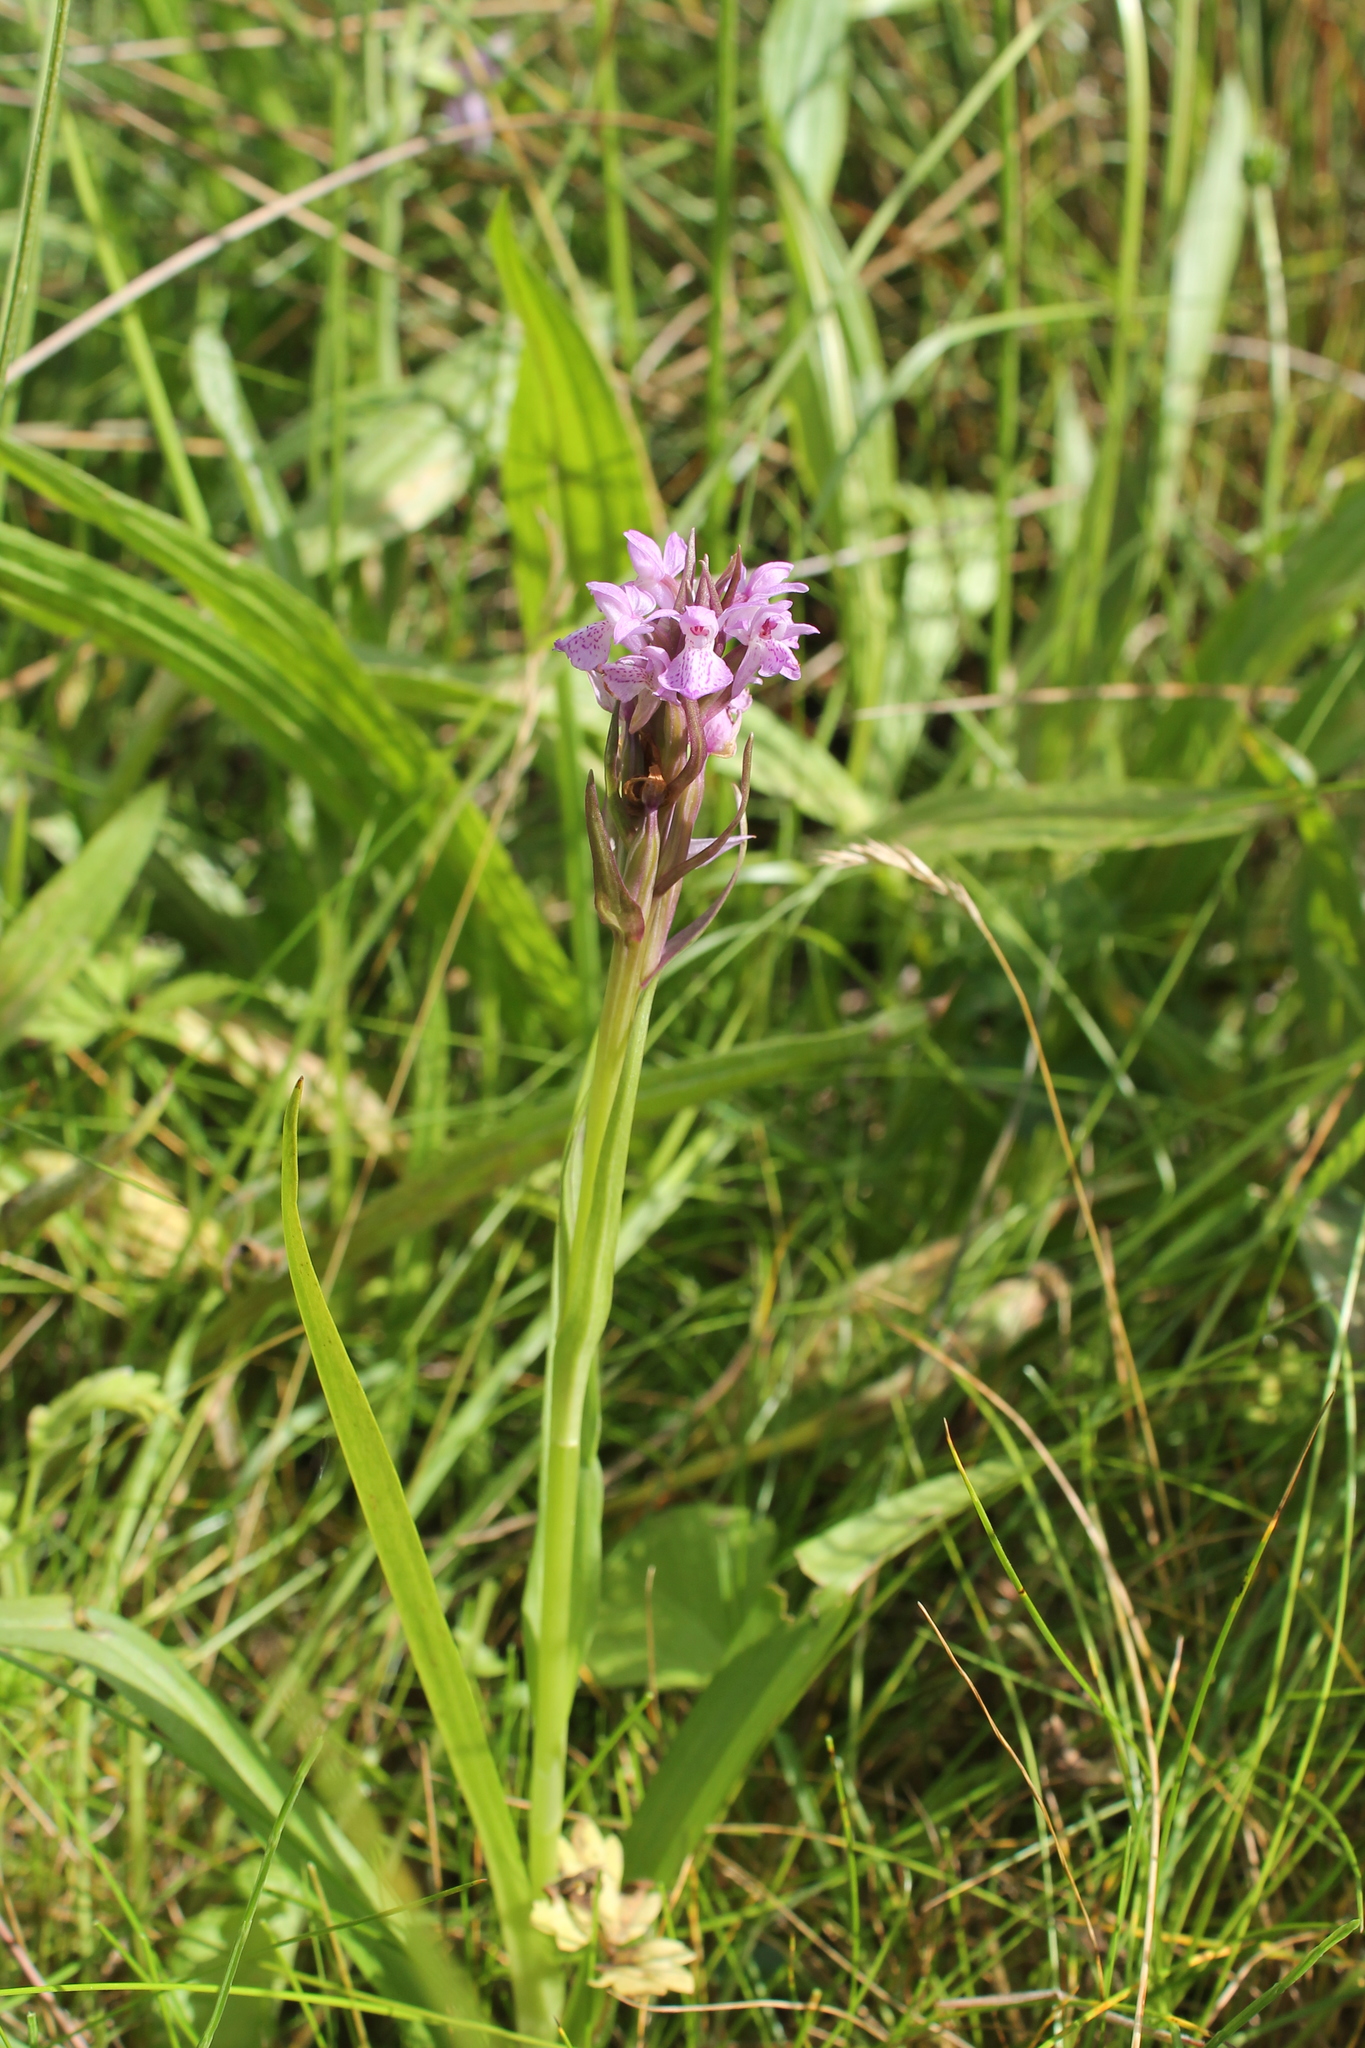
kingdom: Plantae
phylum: Tracheophyta
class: Liliopsida
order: Asparagales
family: Orchidaceae
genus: Dactylorhiza
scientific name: Dactylorhiza majalis
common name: Marsh orchid
